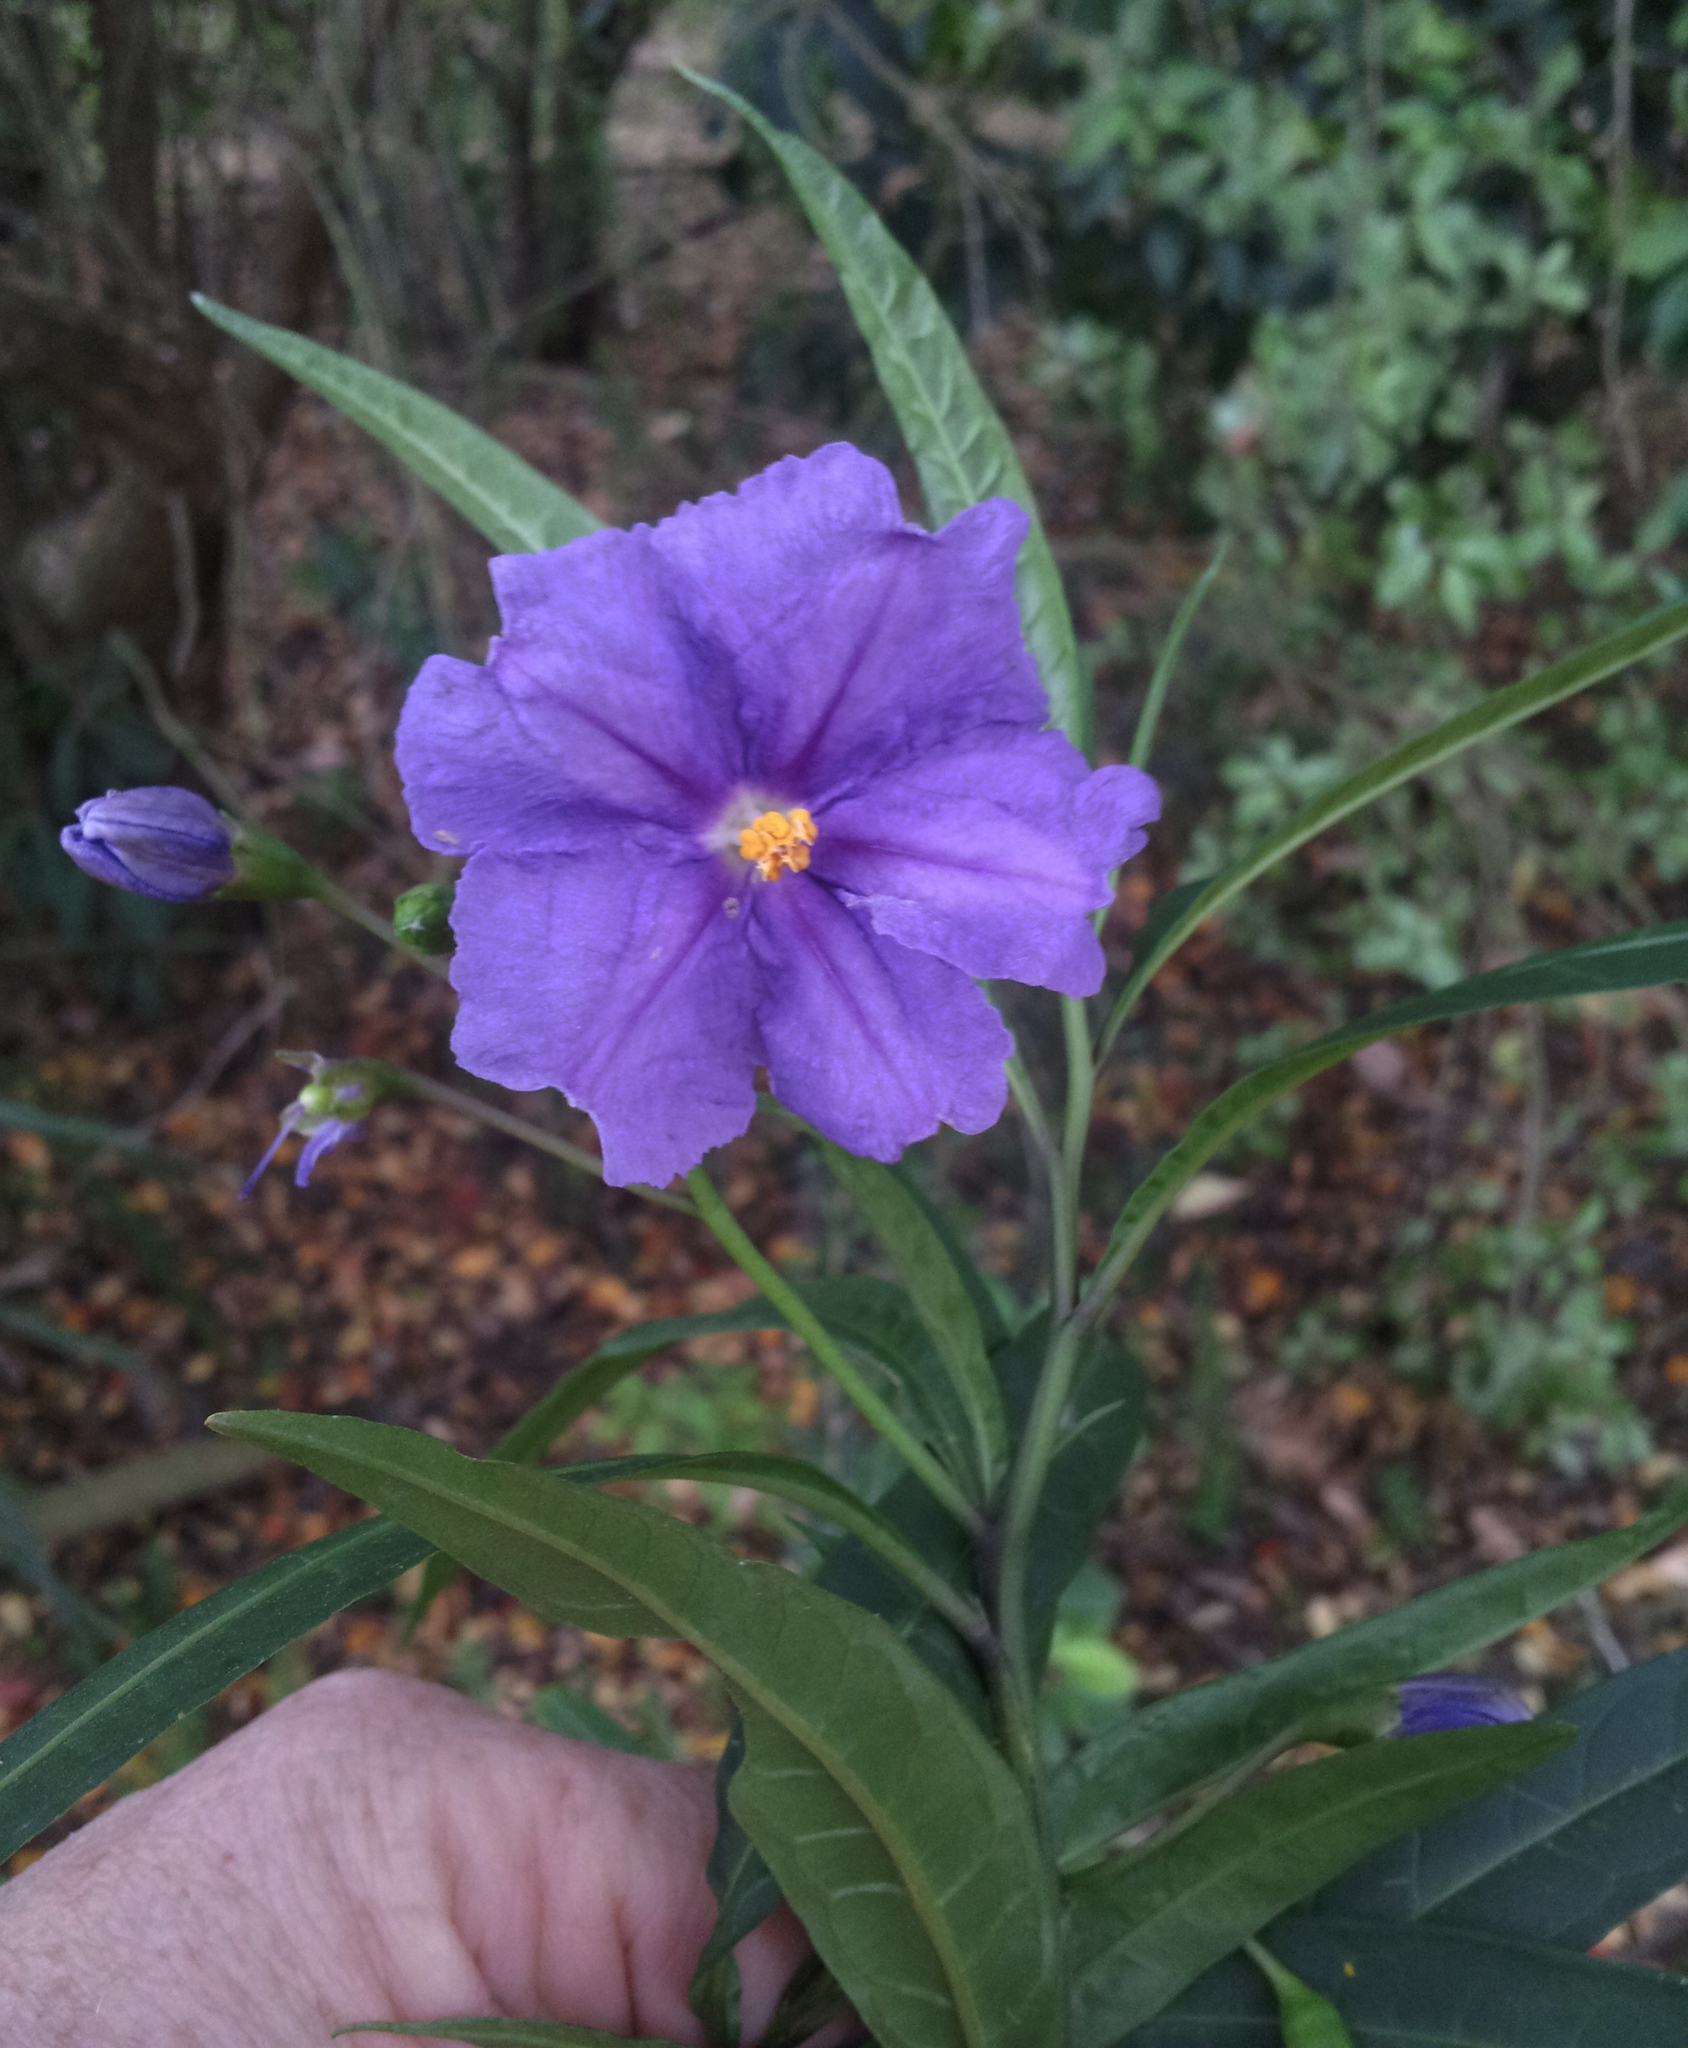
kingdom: Plantae
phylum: Tracheophyta
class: Magnoliopsida
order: Solanales
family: Solanaceae
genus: Solanum
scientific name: Solanum laciniatum
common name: Kangaroo-apple
